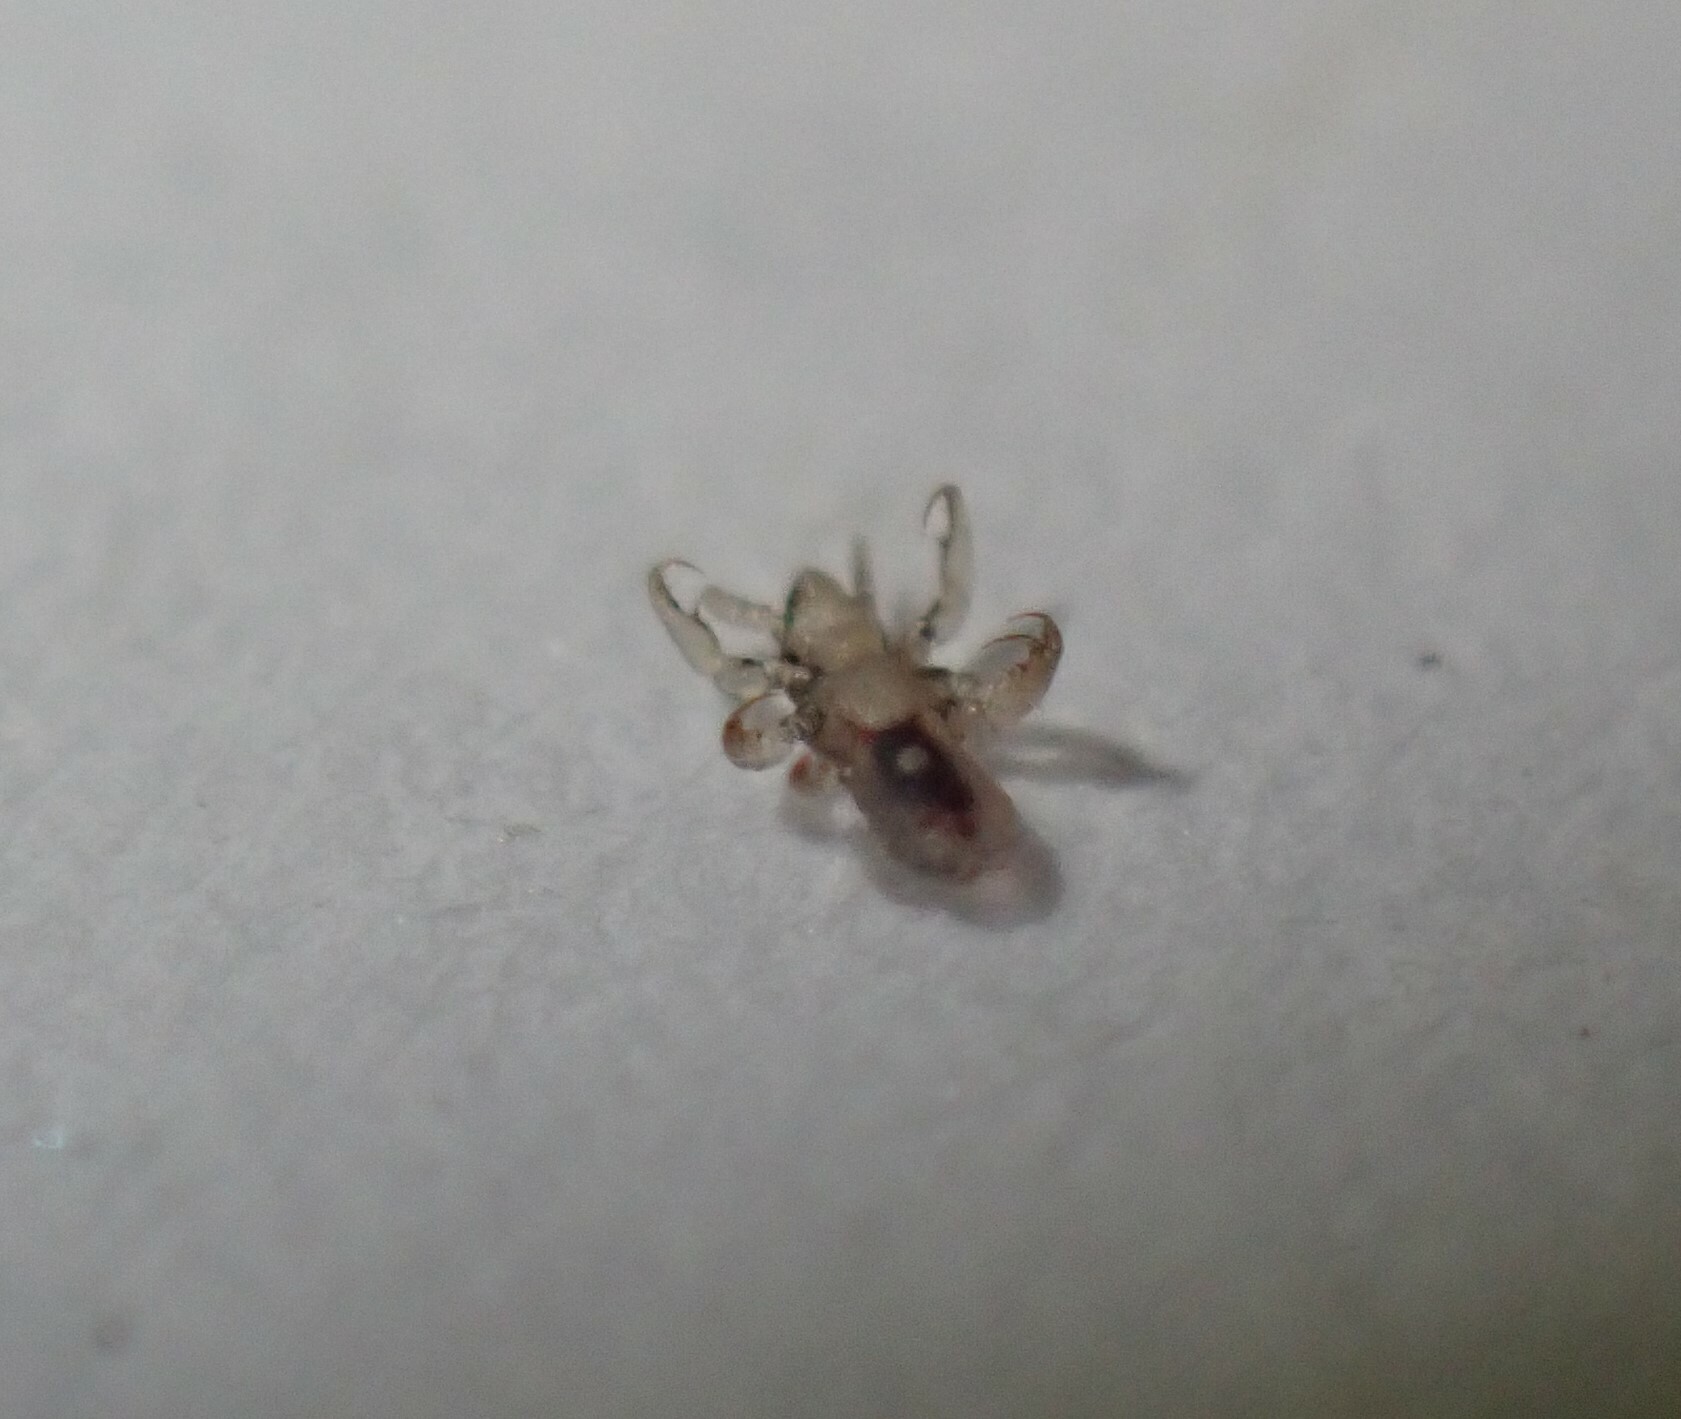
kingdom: Animalia
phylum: Arthropoda
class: Insecta
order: Psocodea
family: Pediculidae
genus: Pediculus
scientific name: Pediculus humanus
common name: Body louse
